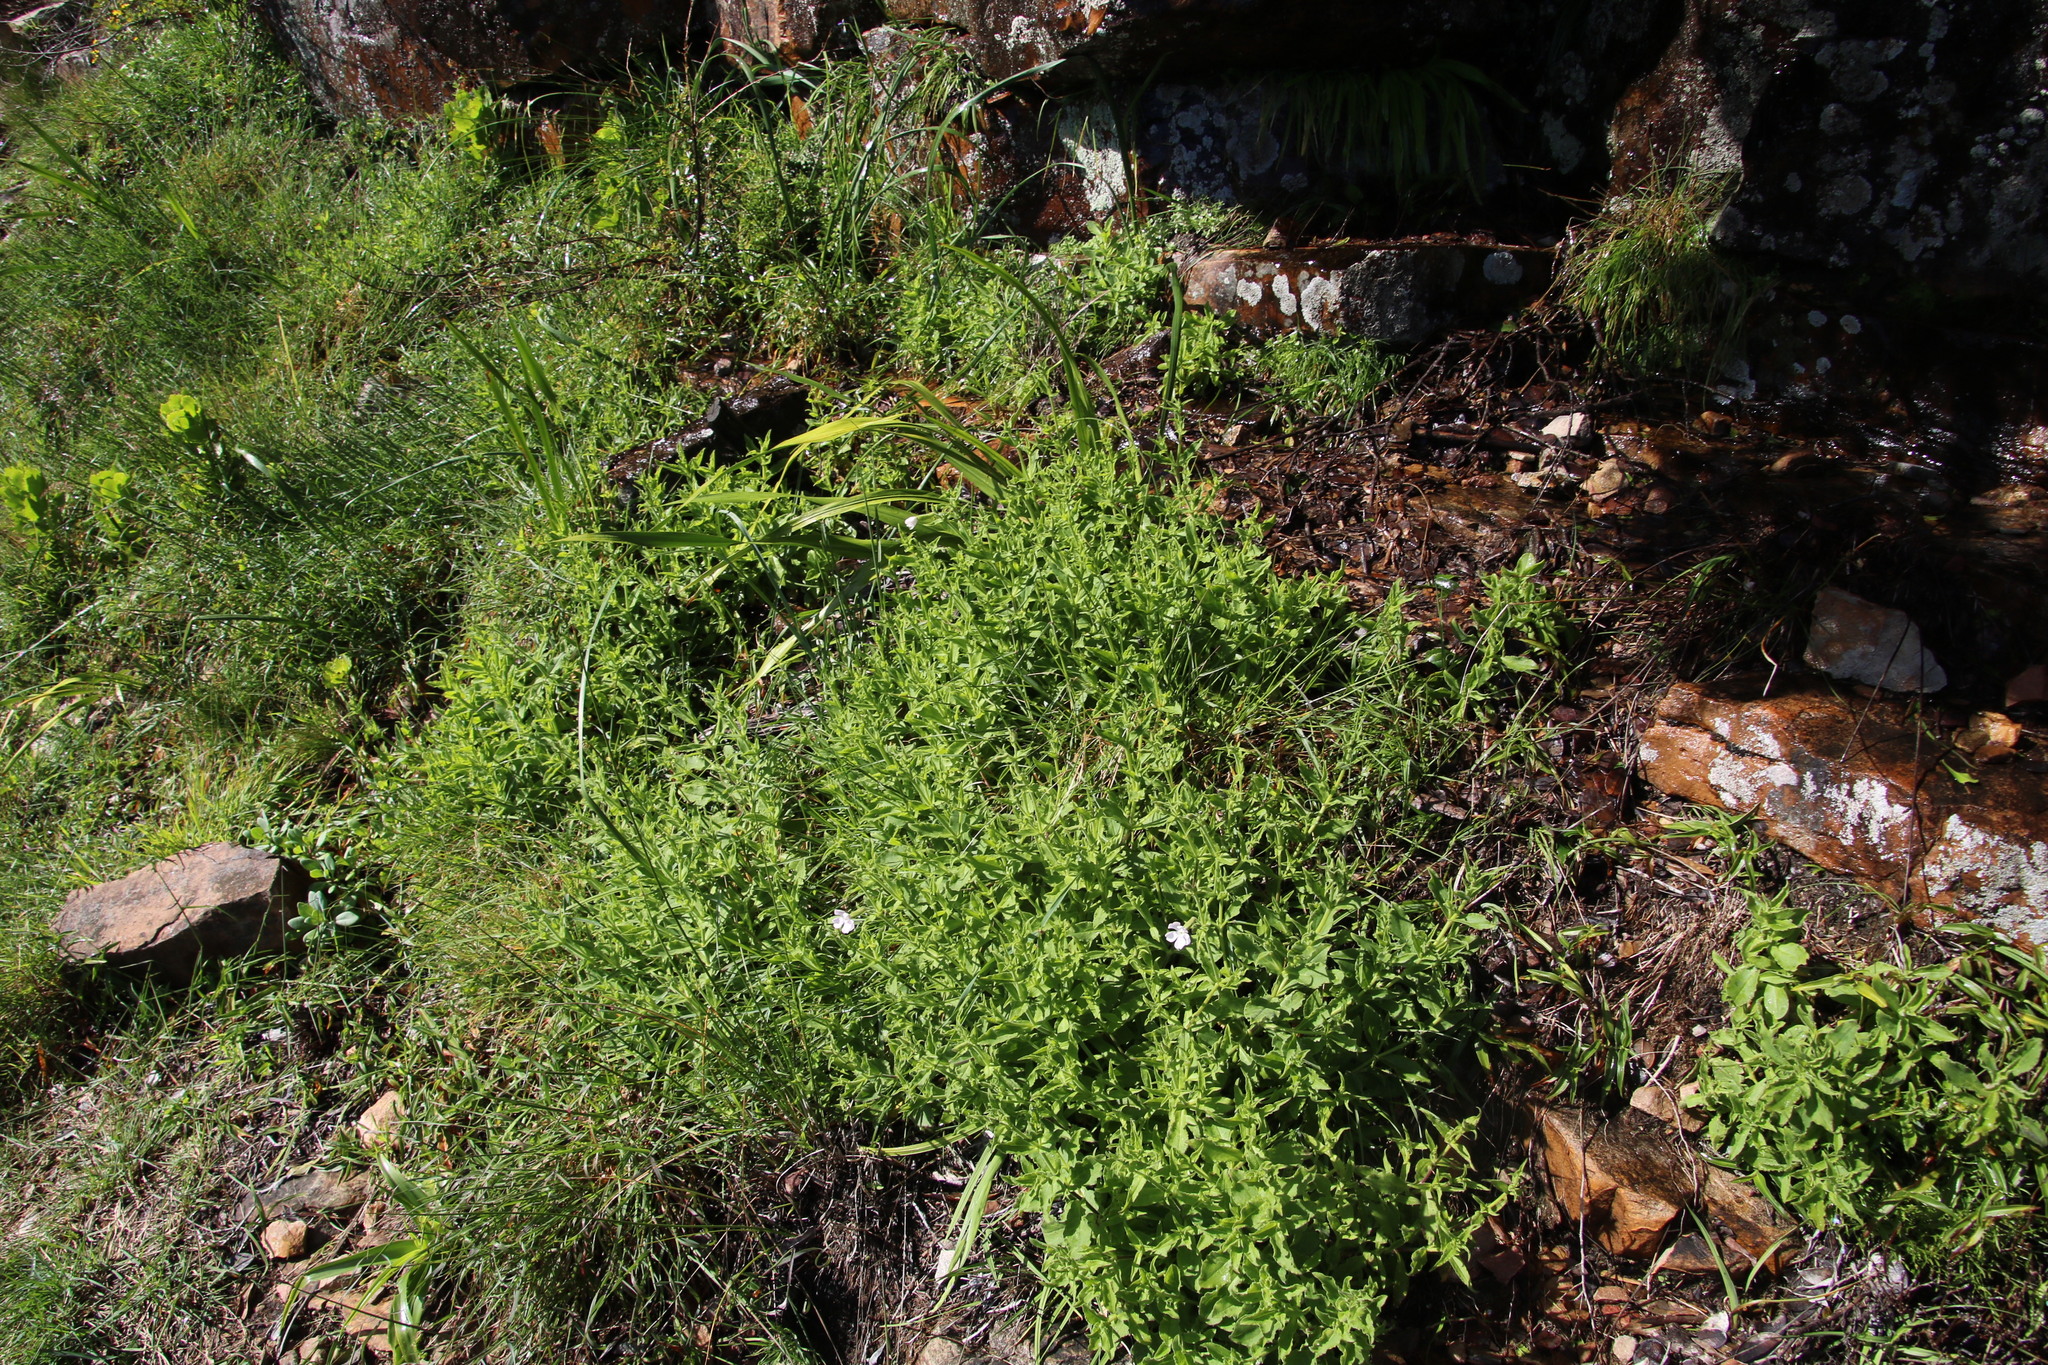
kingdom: Plantae
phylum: Tracheophyta
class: Magnoliopsida
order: Caryophyllales
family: Caryophyllaceae
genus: Silene
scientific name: Silene undulata
